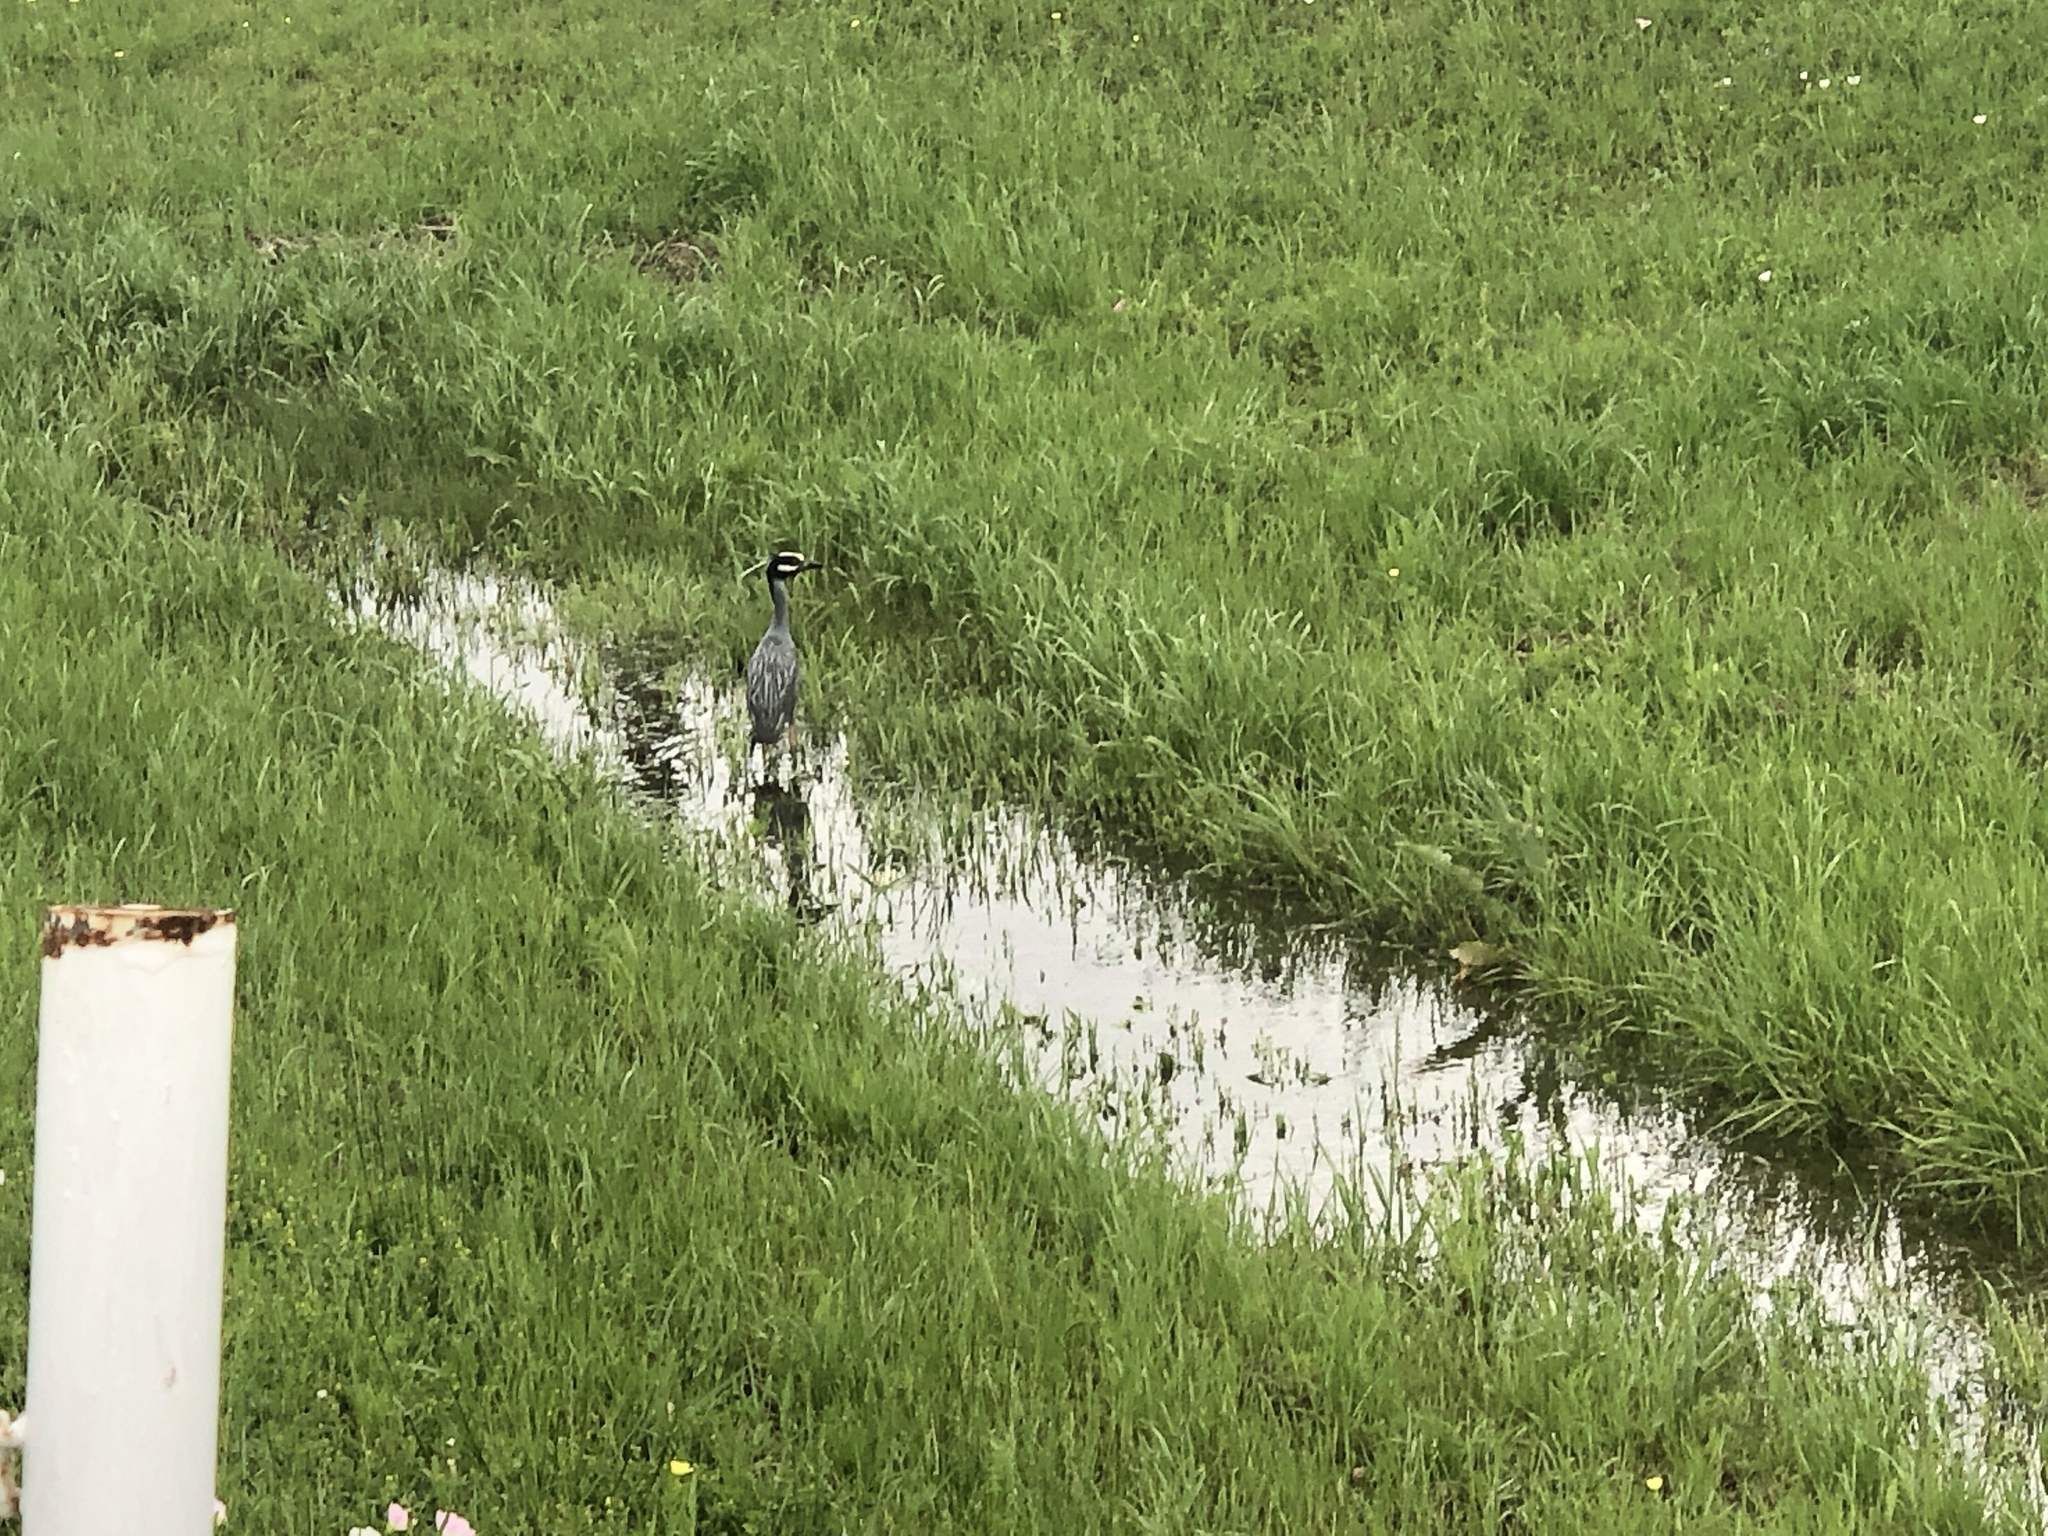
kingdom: Animalia
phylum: Chordata
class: Aves
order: Pelecaniformes
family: Ardeidae
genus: Nyctanassa
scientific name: Nyctanassa violacea
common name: Yellow-crowned night heron
